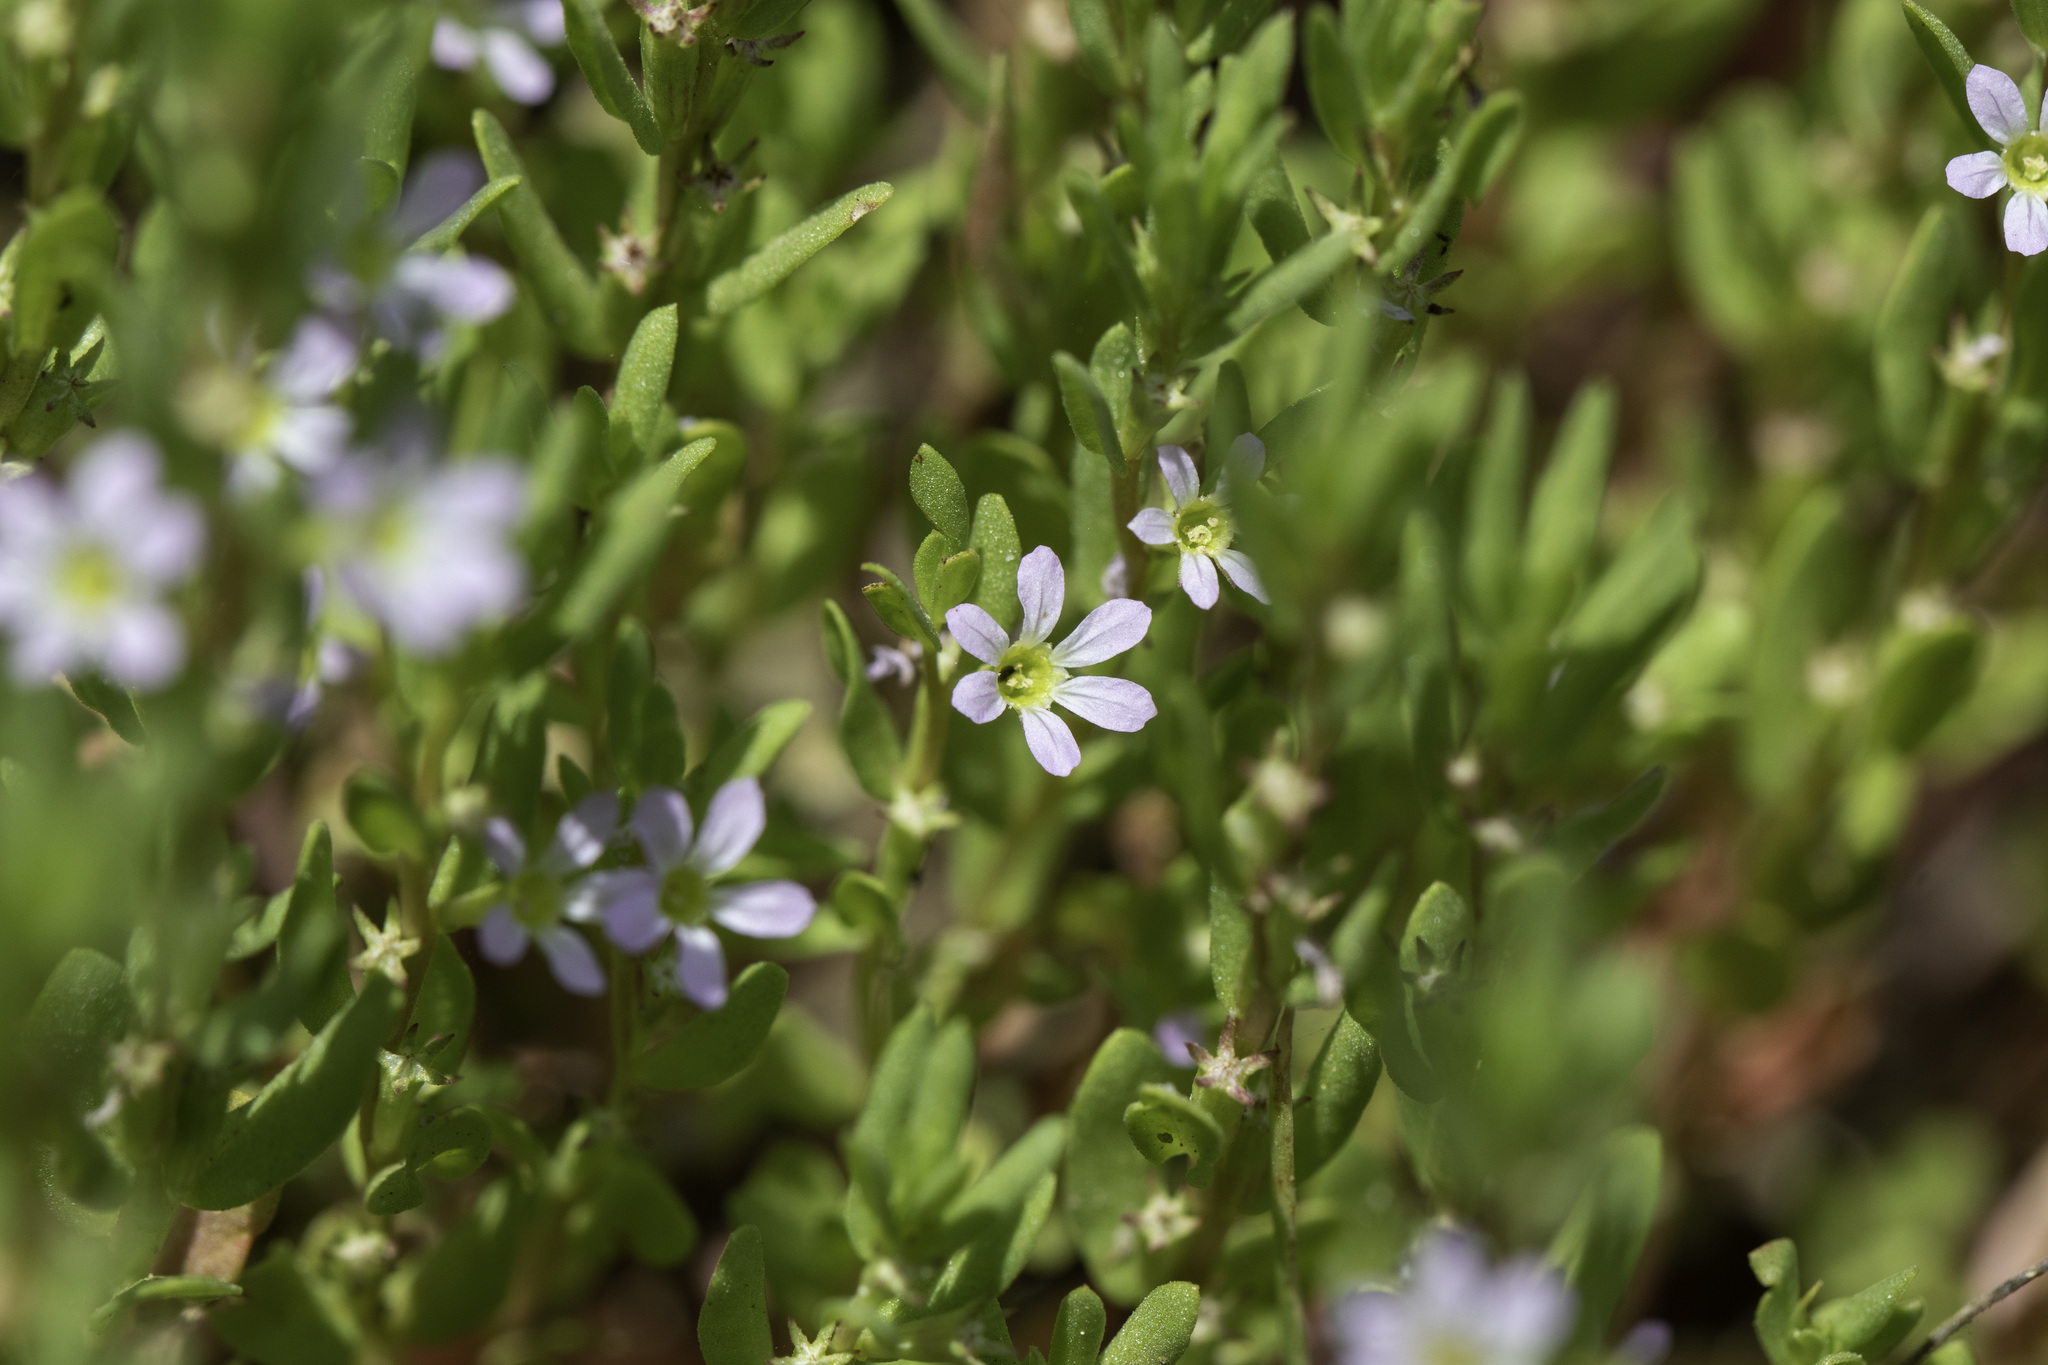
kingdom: Plantae
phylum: Tracheophyta
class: Magnoliopsida
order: Myrtales
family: Lythraceae
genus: Lythrum
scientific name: Lythrum hyssopifolia
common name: Grass-poly
